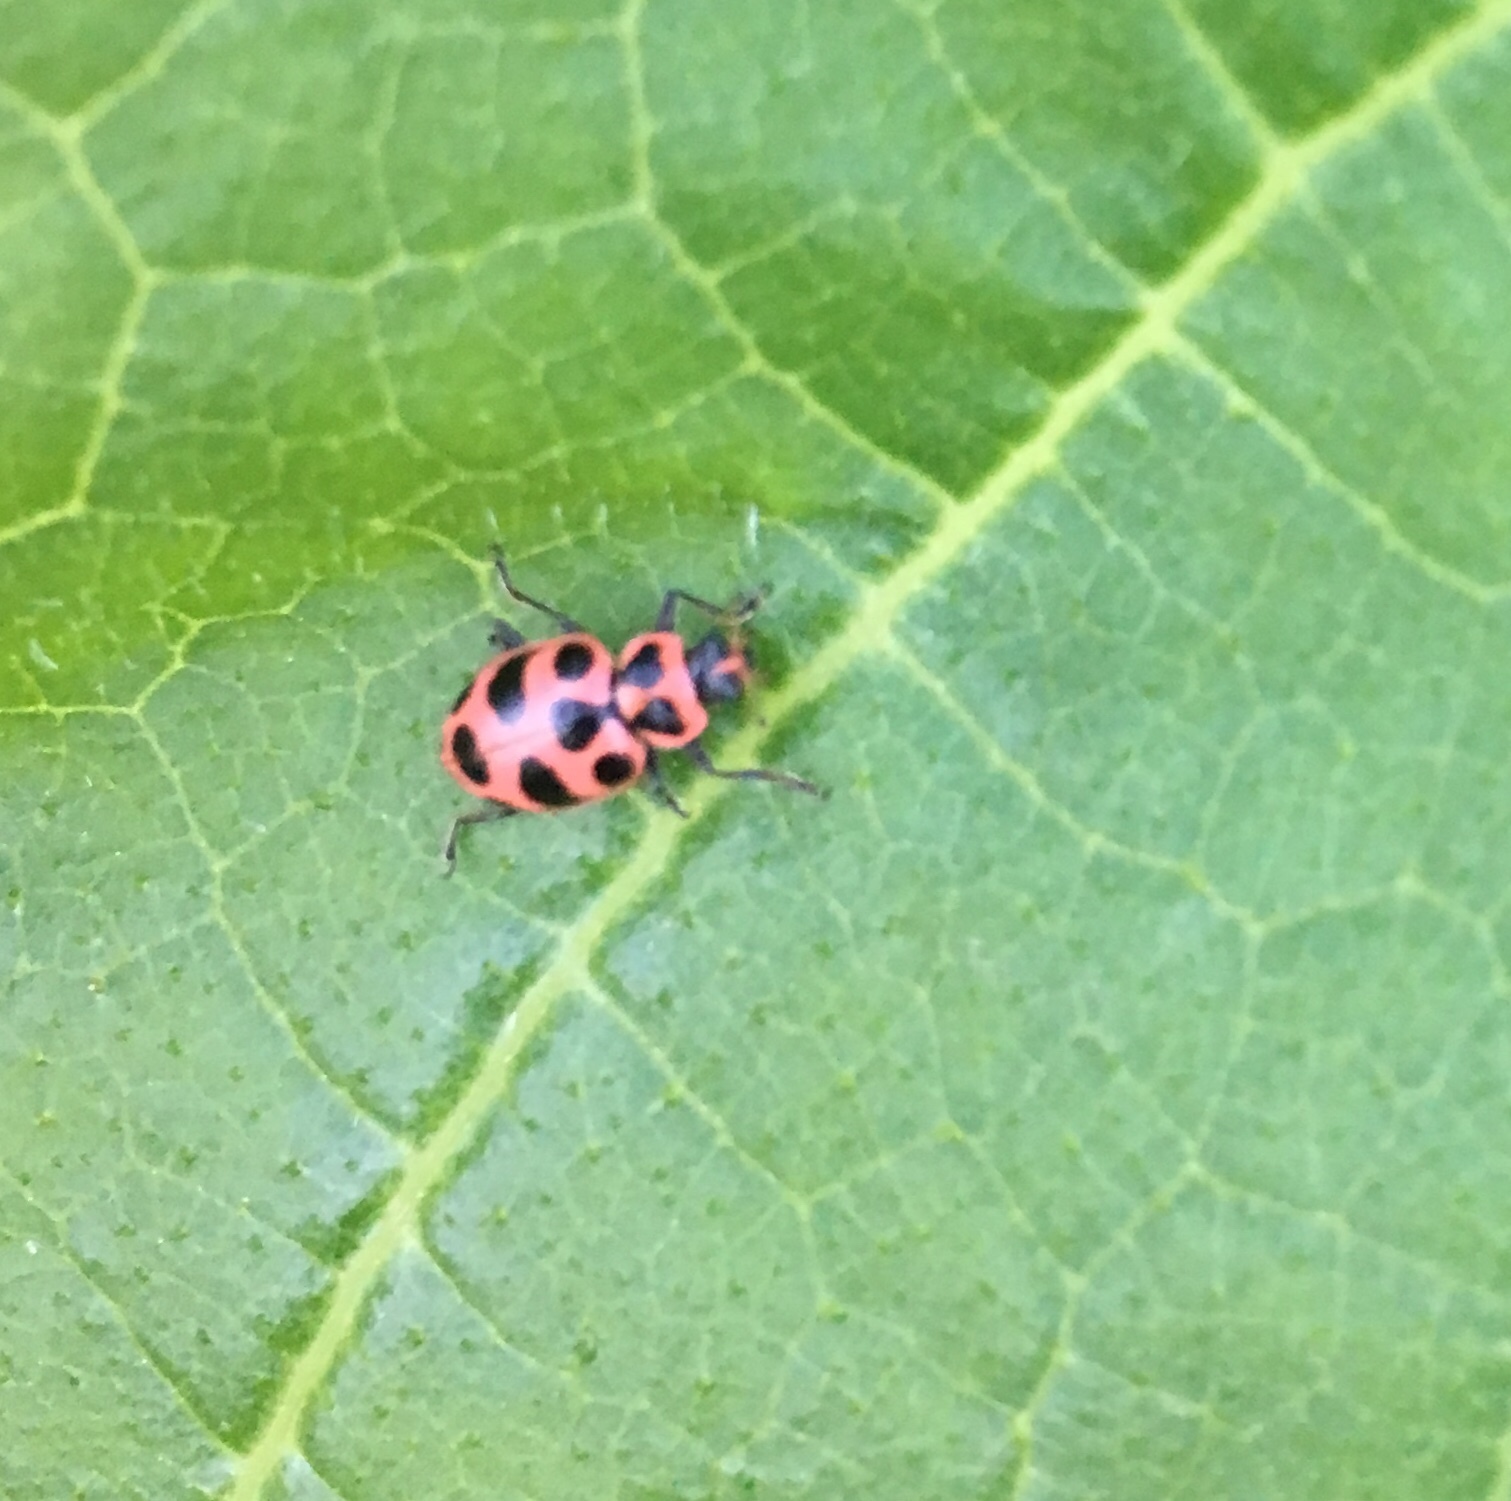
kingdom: Animalia
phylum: Arthropoda
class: Insecta
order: Coleoptera
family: Coccinellidae
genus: Coleomegilla
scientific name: Coleomegilla maculata
